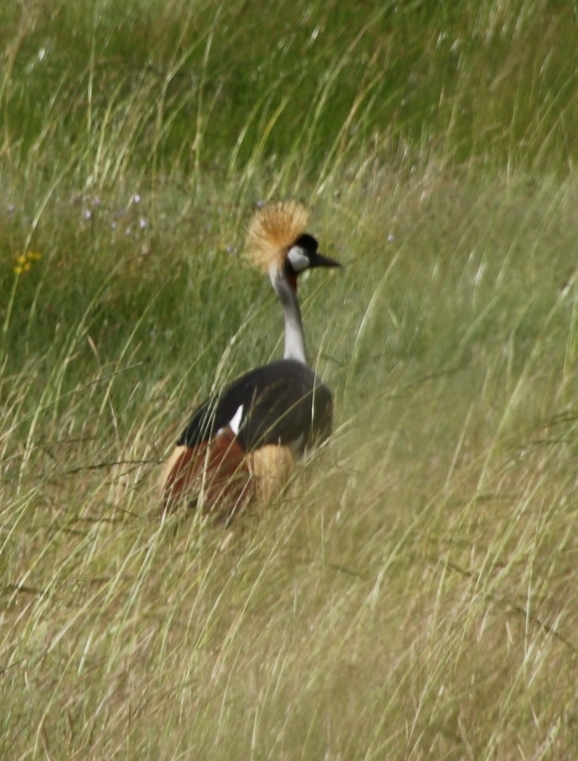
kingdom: Animalia
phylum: Chordata
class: Aves
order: Gruiformes
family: Gruidae
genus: Balearica
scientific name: Balearica regulorum
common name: Grey crowned crane
